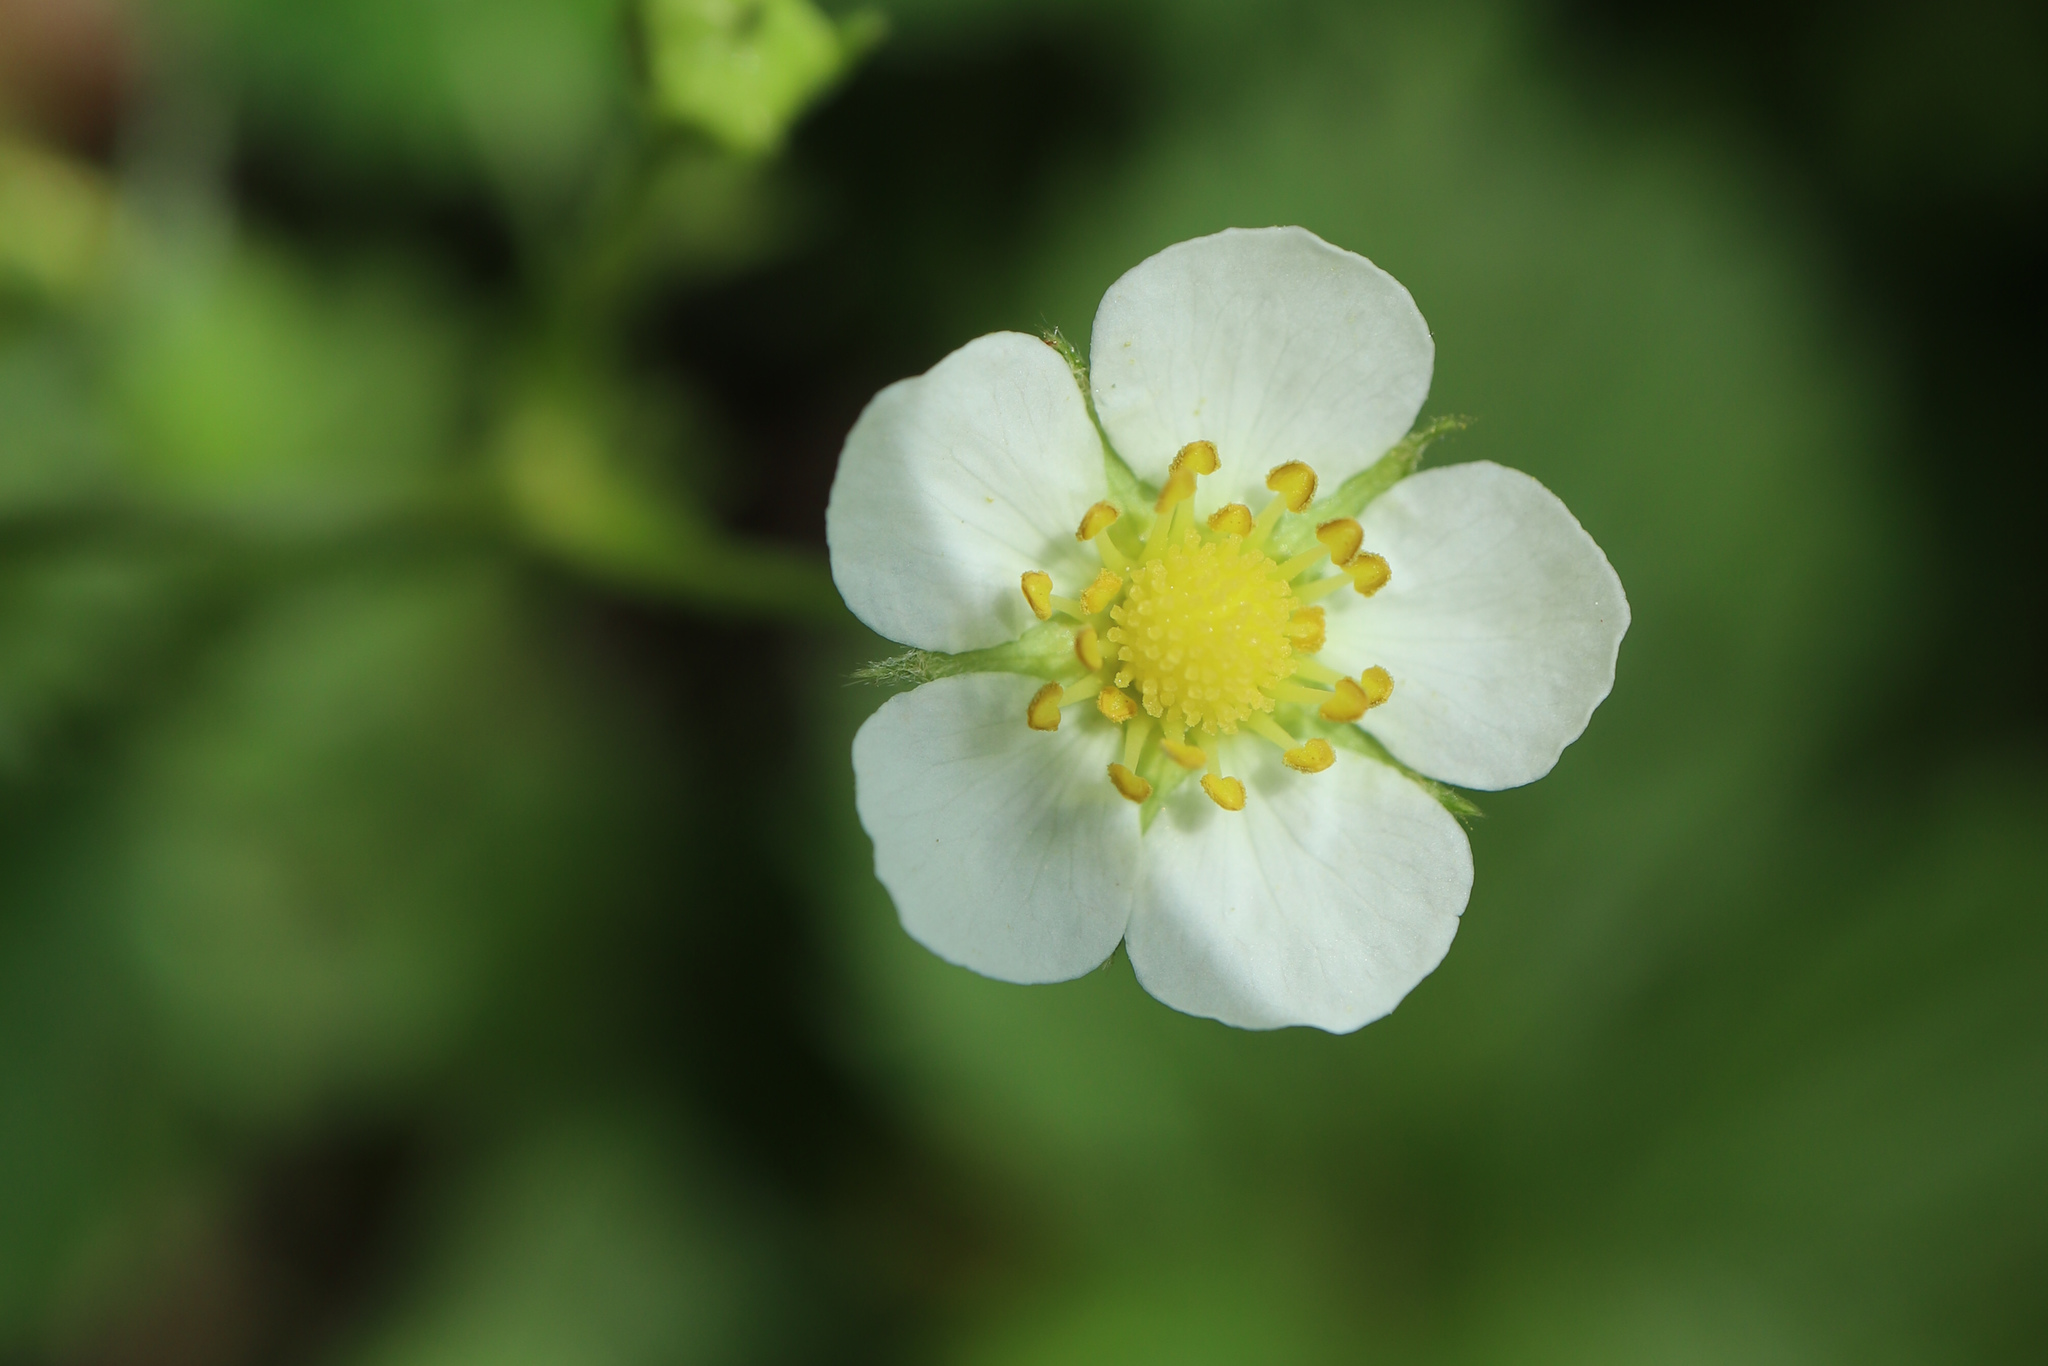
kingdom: Plantae
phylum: Tracheophyta
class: Magnoliopsida
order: Rosales
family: Rosaceae
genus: Fragaria
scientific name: Fragaria vesca
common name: Wild strawberry
